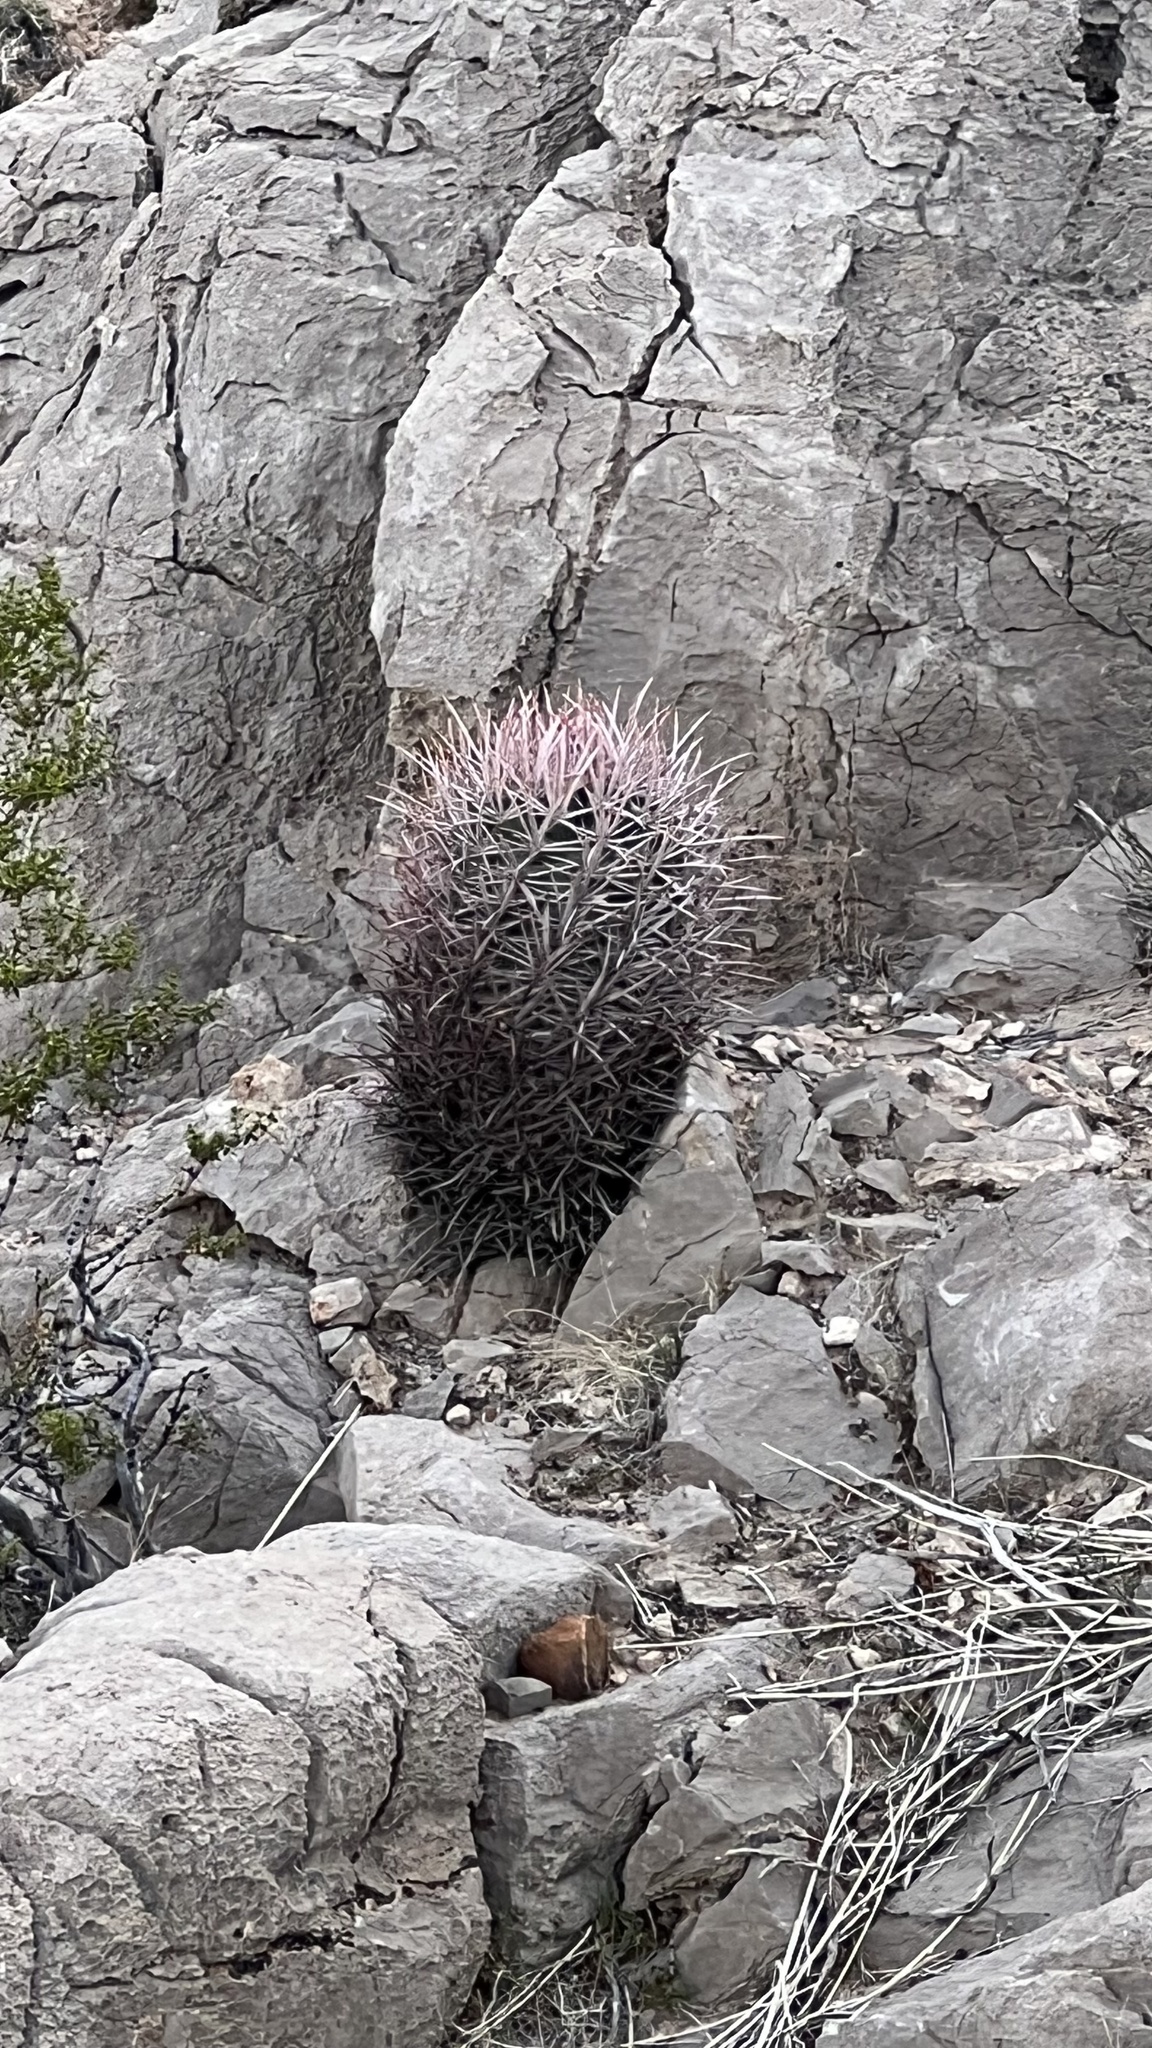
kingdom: Plantae
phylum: Tracheophyta
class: Magnoliopsida
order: Caryophyllales
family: Cactaceae
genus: Echinocactus
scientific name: Echinocactus polycephalus
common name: Cottontop cactus
